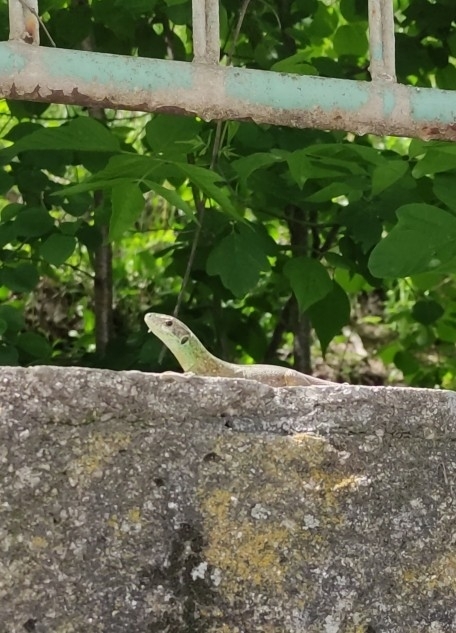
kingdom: Animalia
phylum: Chordata
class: Squamata
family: Lacertidae
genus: Lacerta
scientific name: Lacerta viridis
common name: European green lizard
